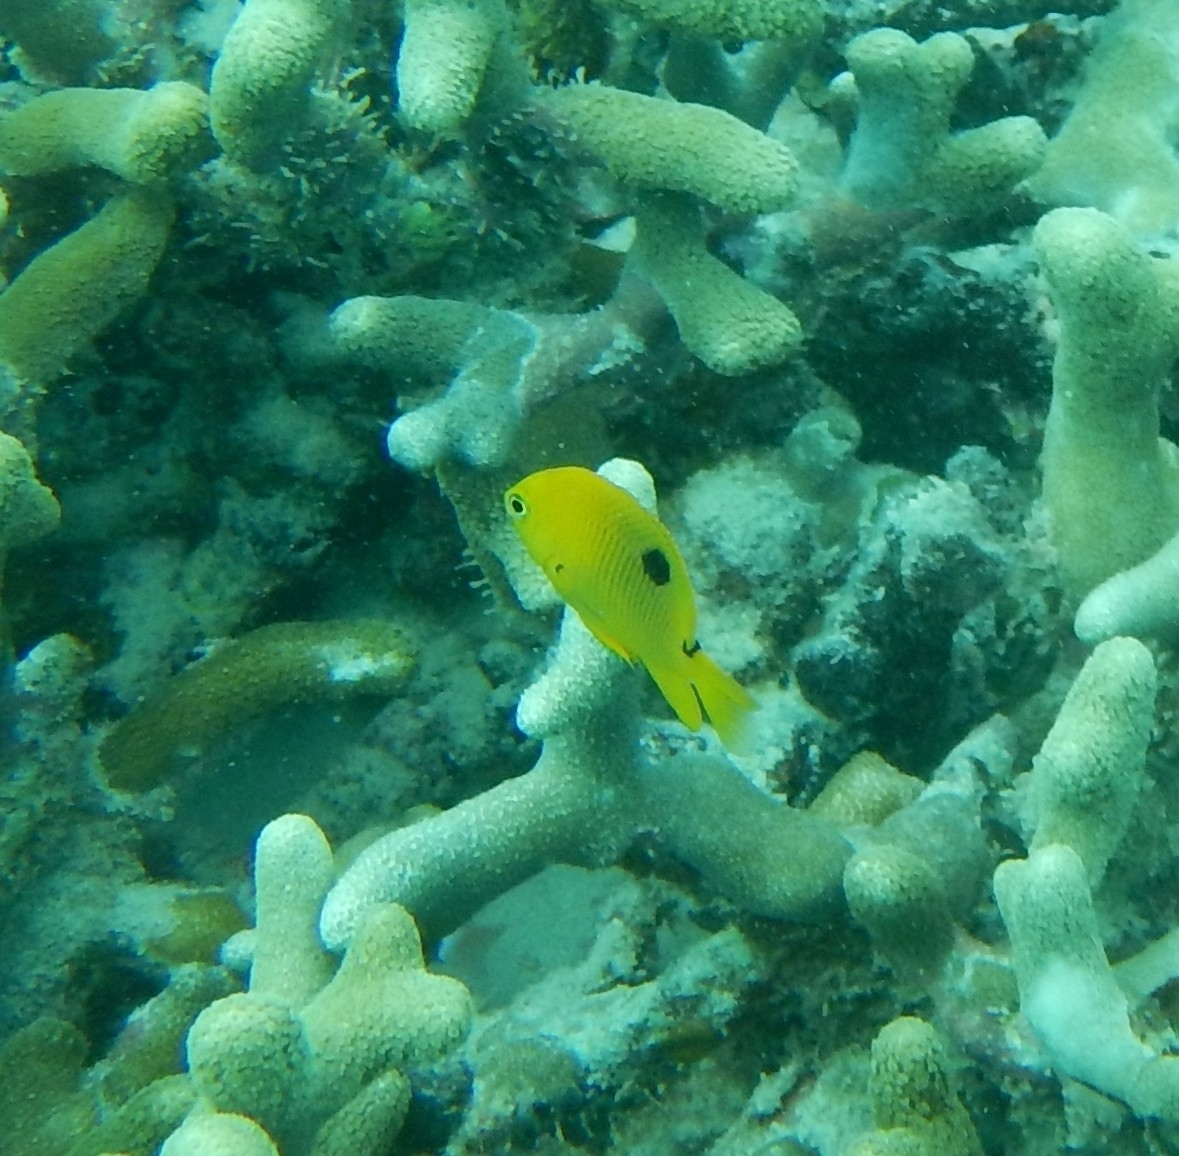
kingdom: Animalia
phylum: Chordata
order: Perciformes
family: Pomacentridae
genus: Stegastes
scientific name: Stegastes planifrons
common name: Threespot damselfish
